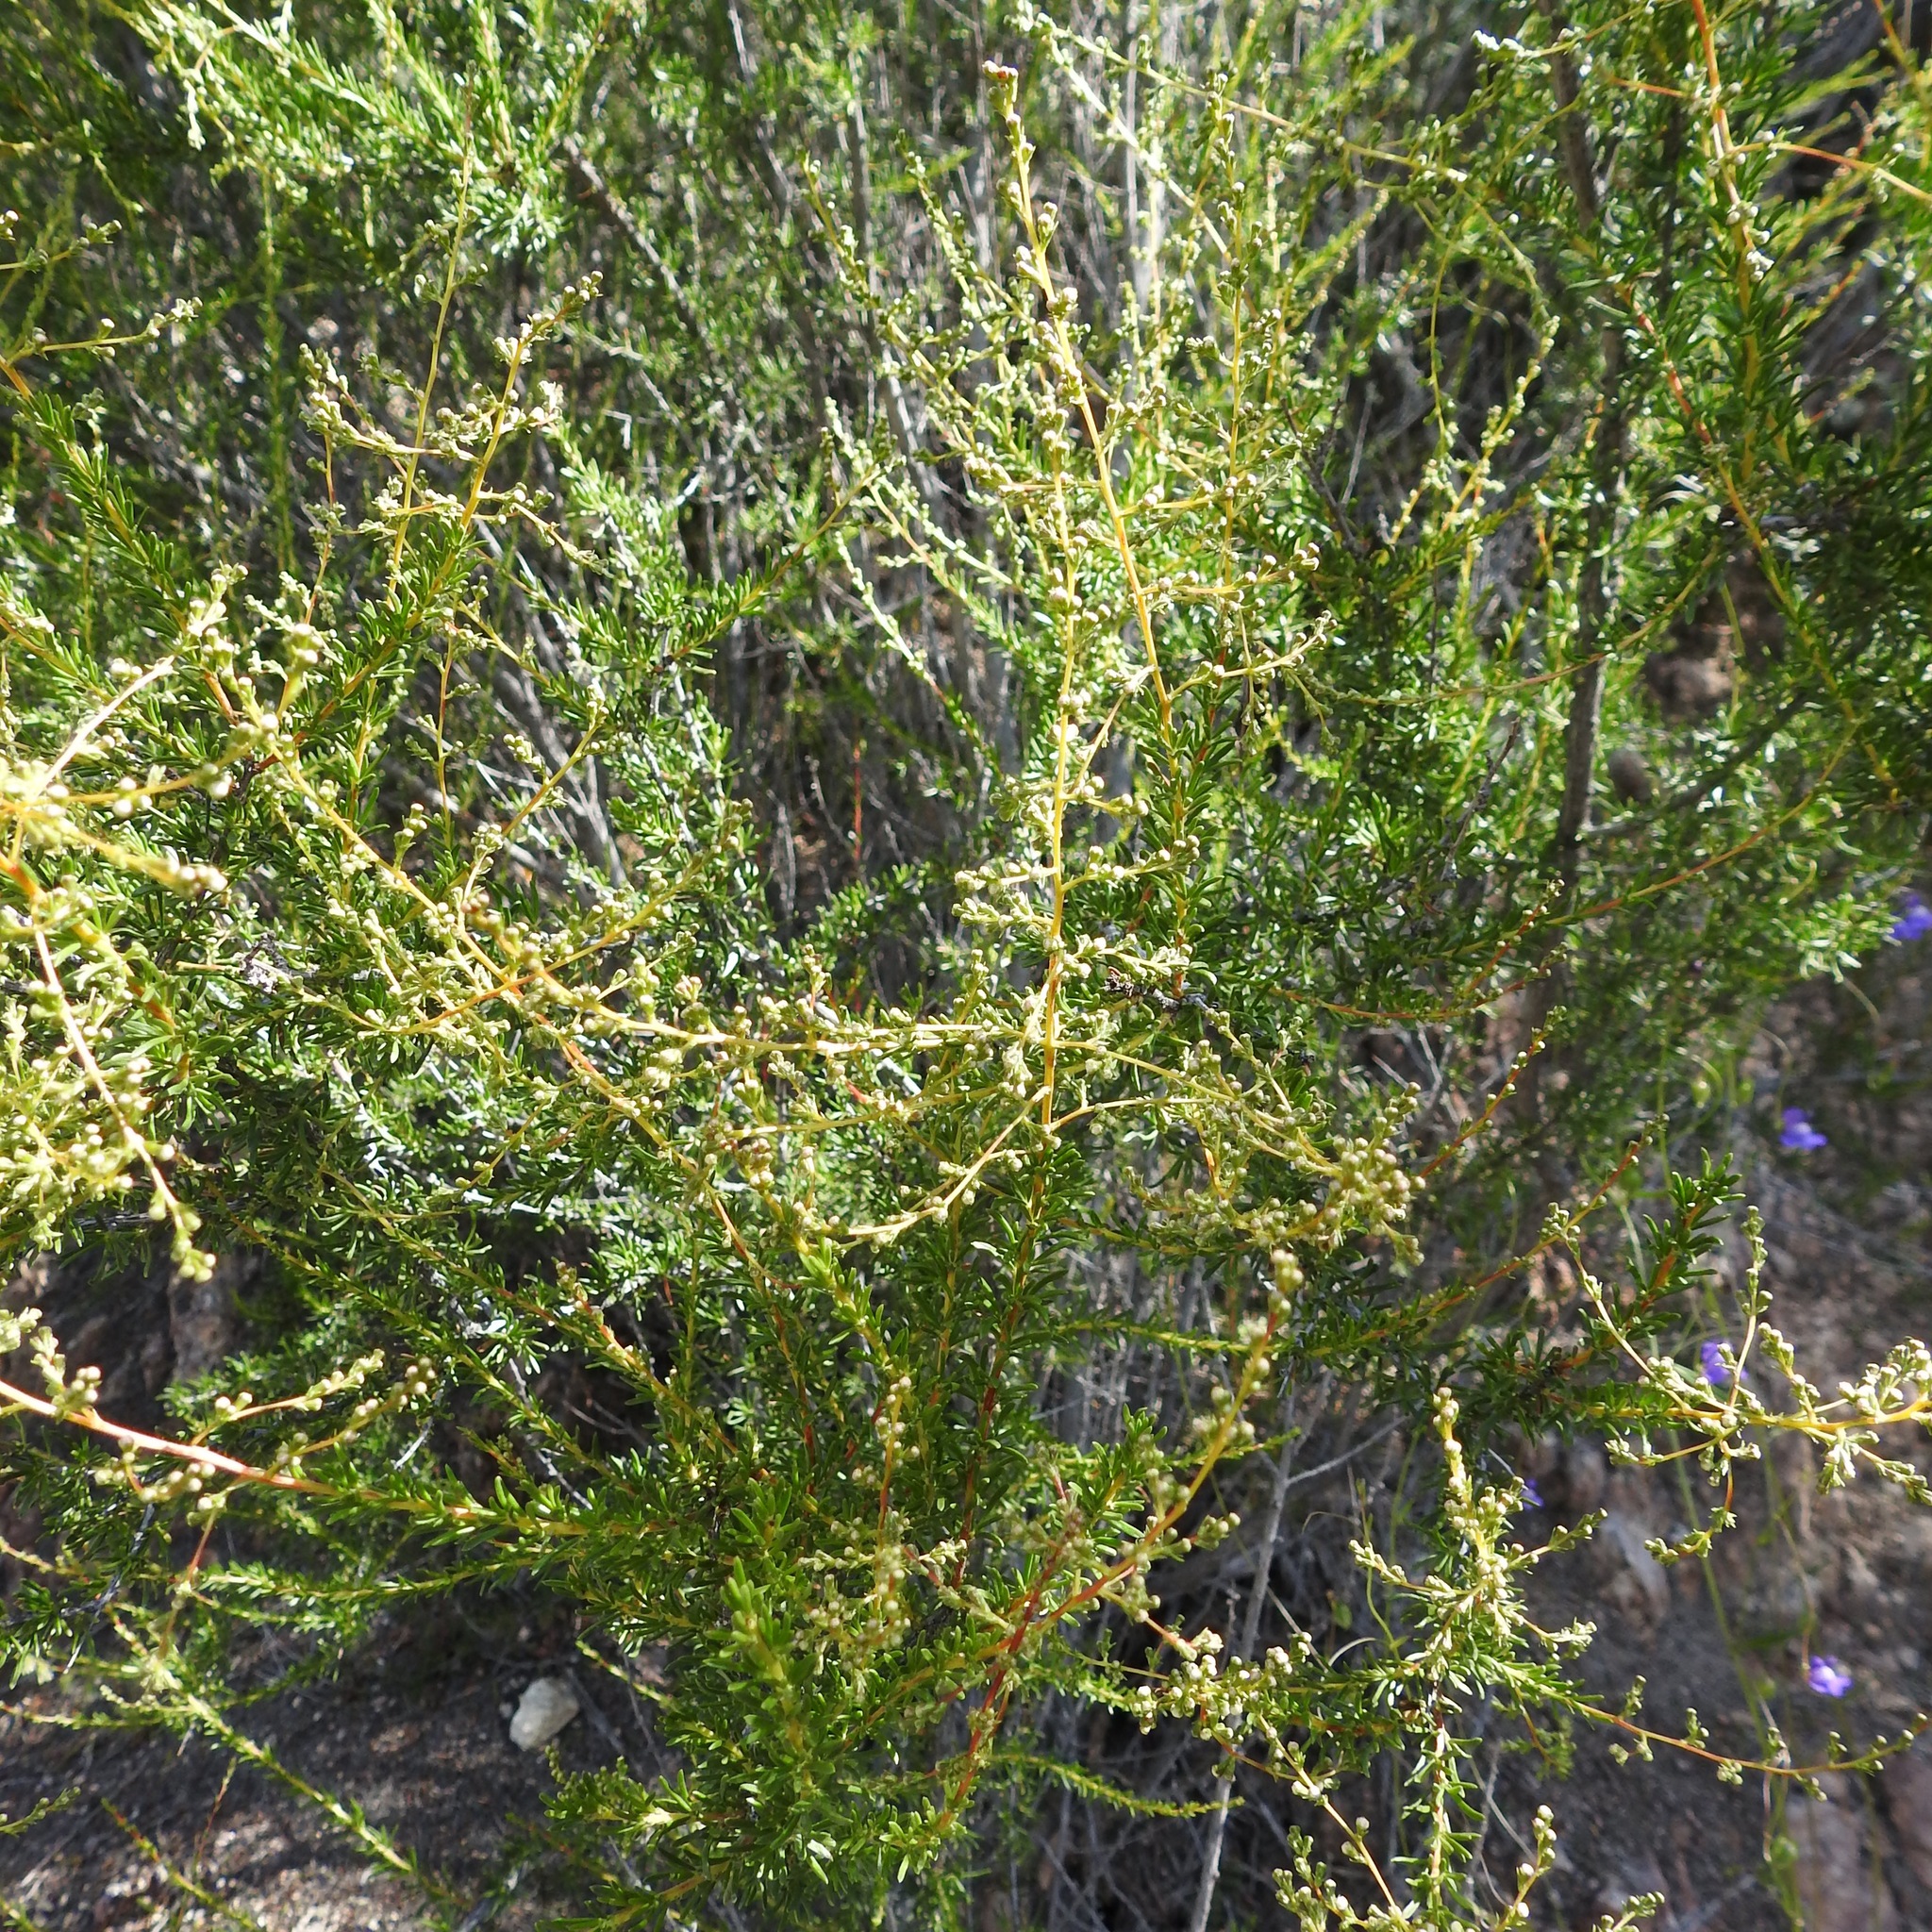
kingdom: Plantae
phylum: Tracheophyta
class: Magnoliopsida
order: Rosales
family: Rosaceae
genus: Adenostoma
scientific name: Adenostoma fasciculatum
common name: Chamise
